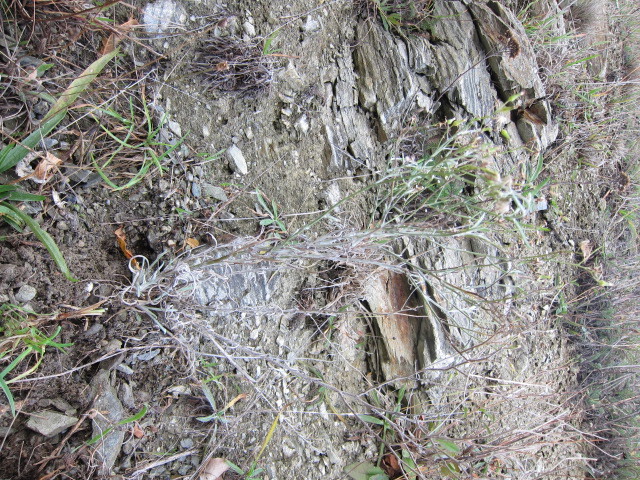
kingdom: Plantae
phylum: Tracheophyta
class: Magnoliopsida
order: Asterales
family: Asteraceae
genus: Senecio
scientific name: Senecio quadridentatus
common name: Cotton fireweed
